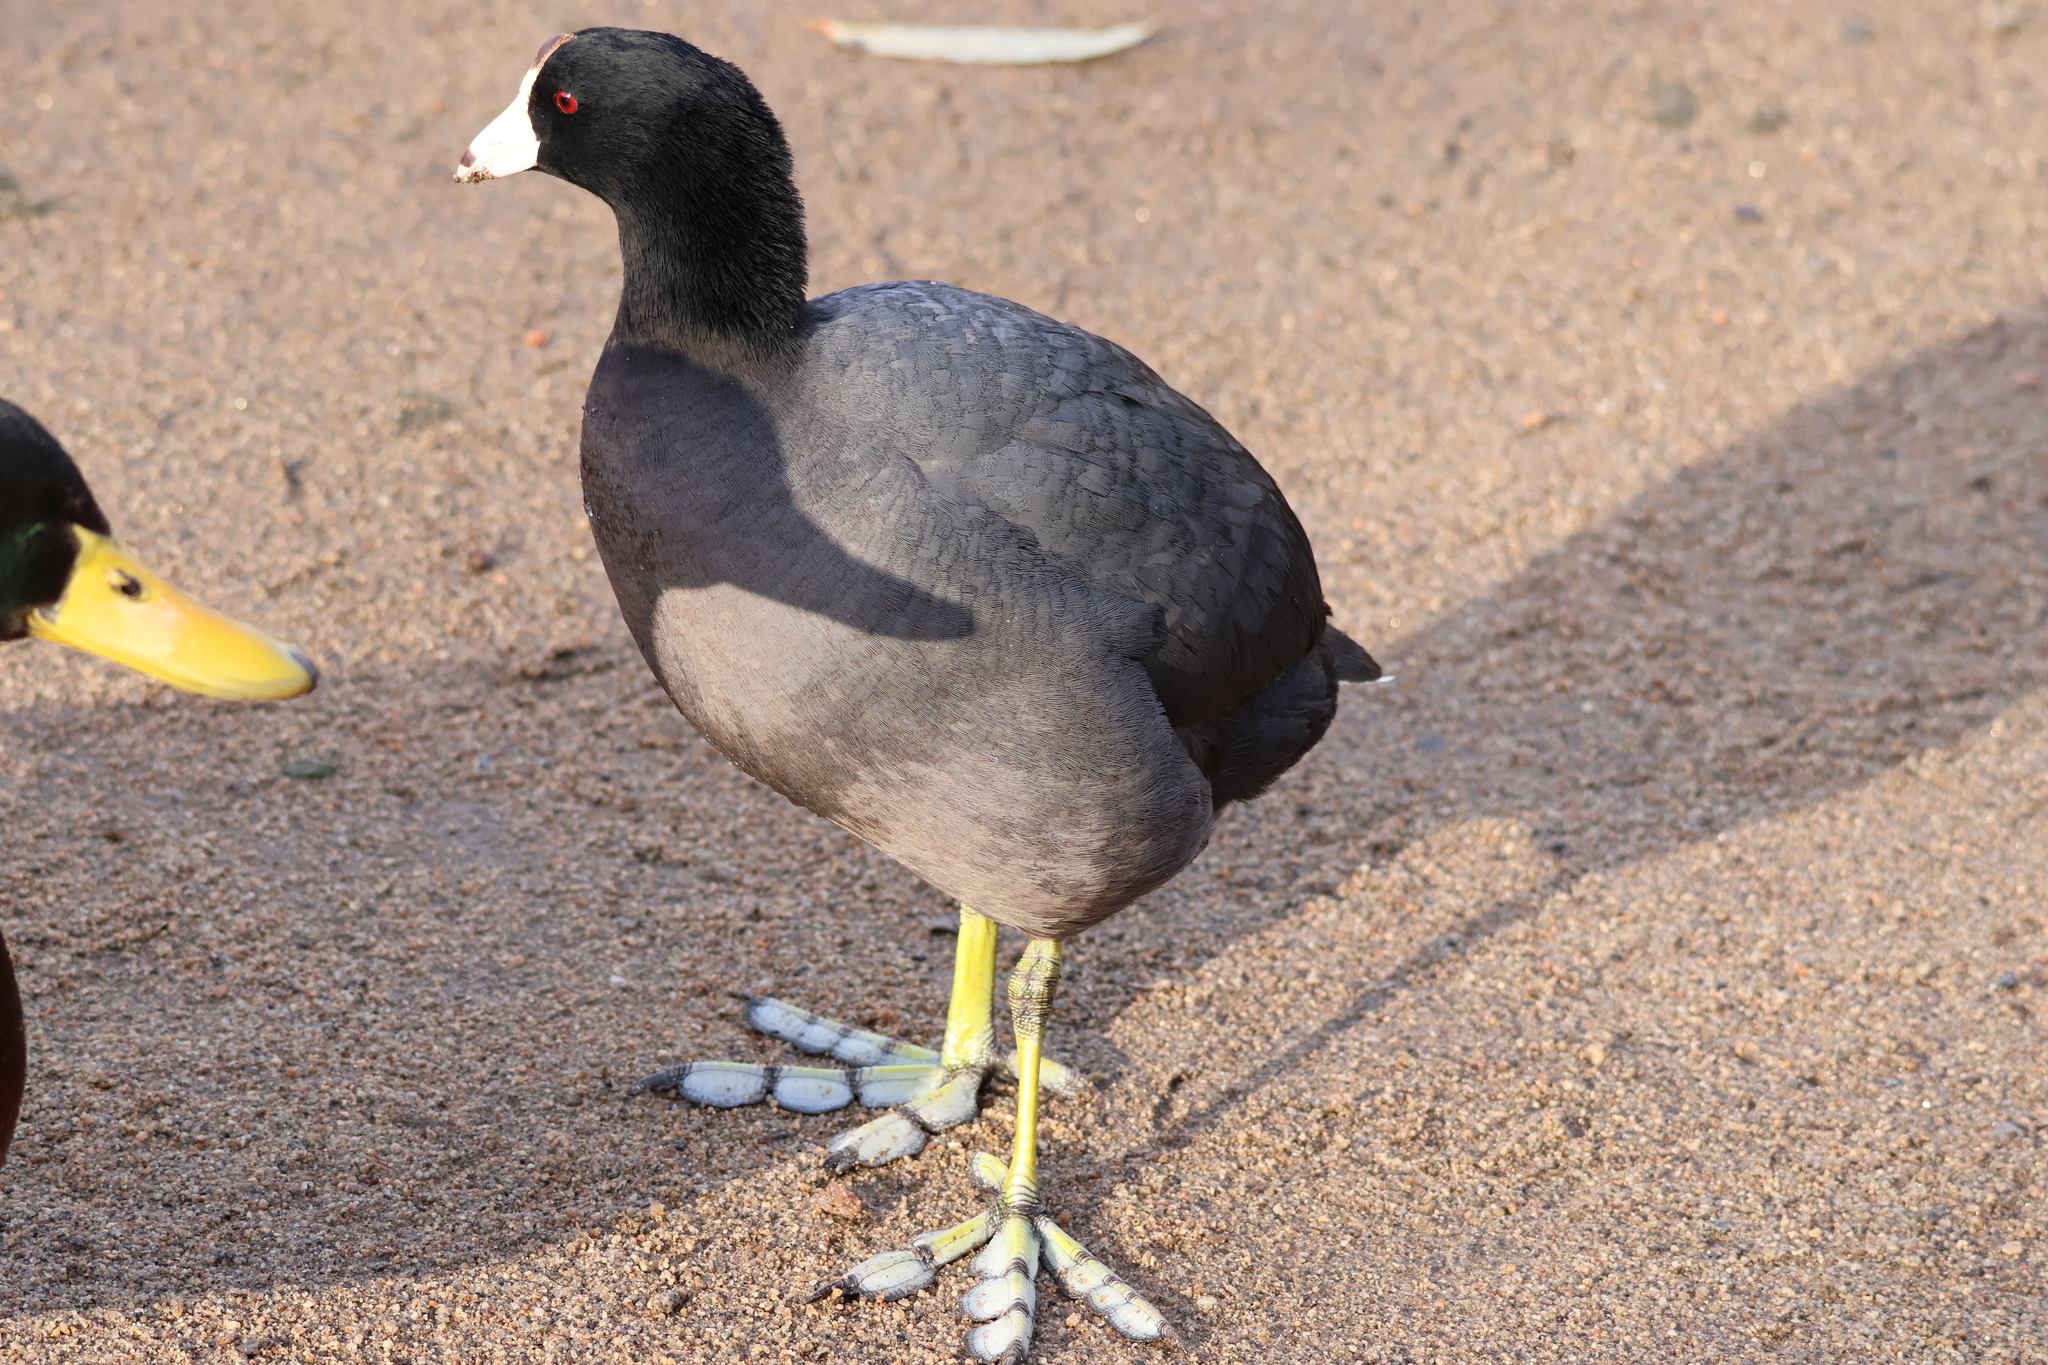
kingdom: Animalia
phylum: Chordata
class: Aves
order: Gruiformes
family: Rallidae
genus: Fulica
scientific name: Fulica americana
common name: American coot
